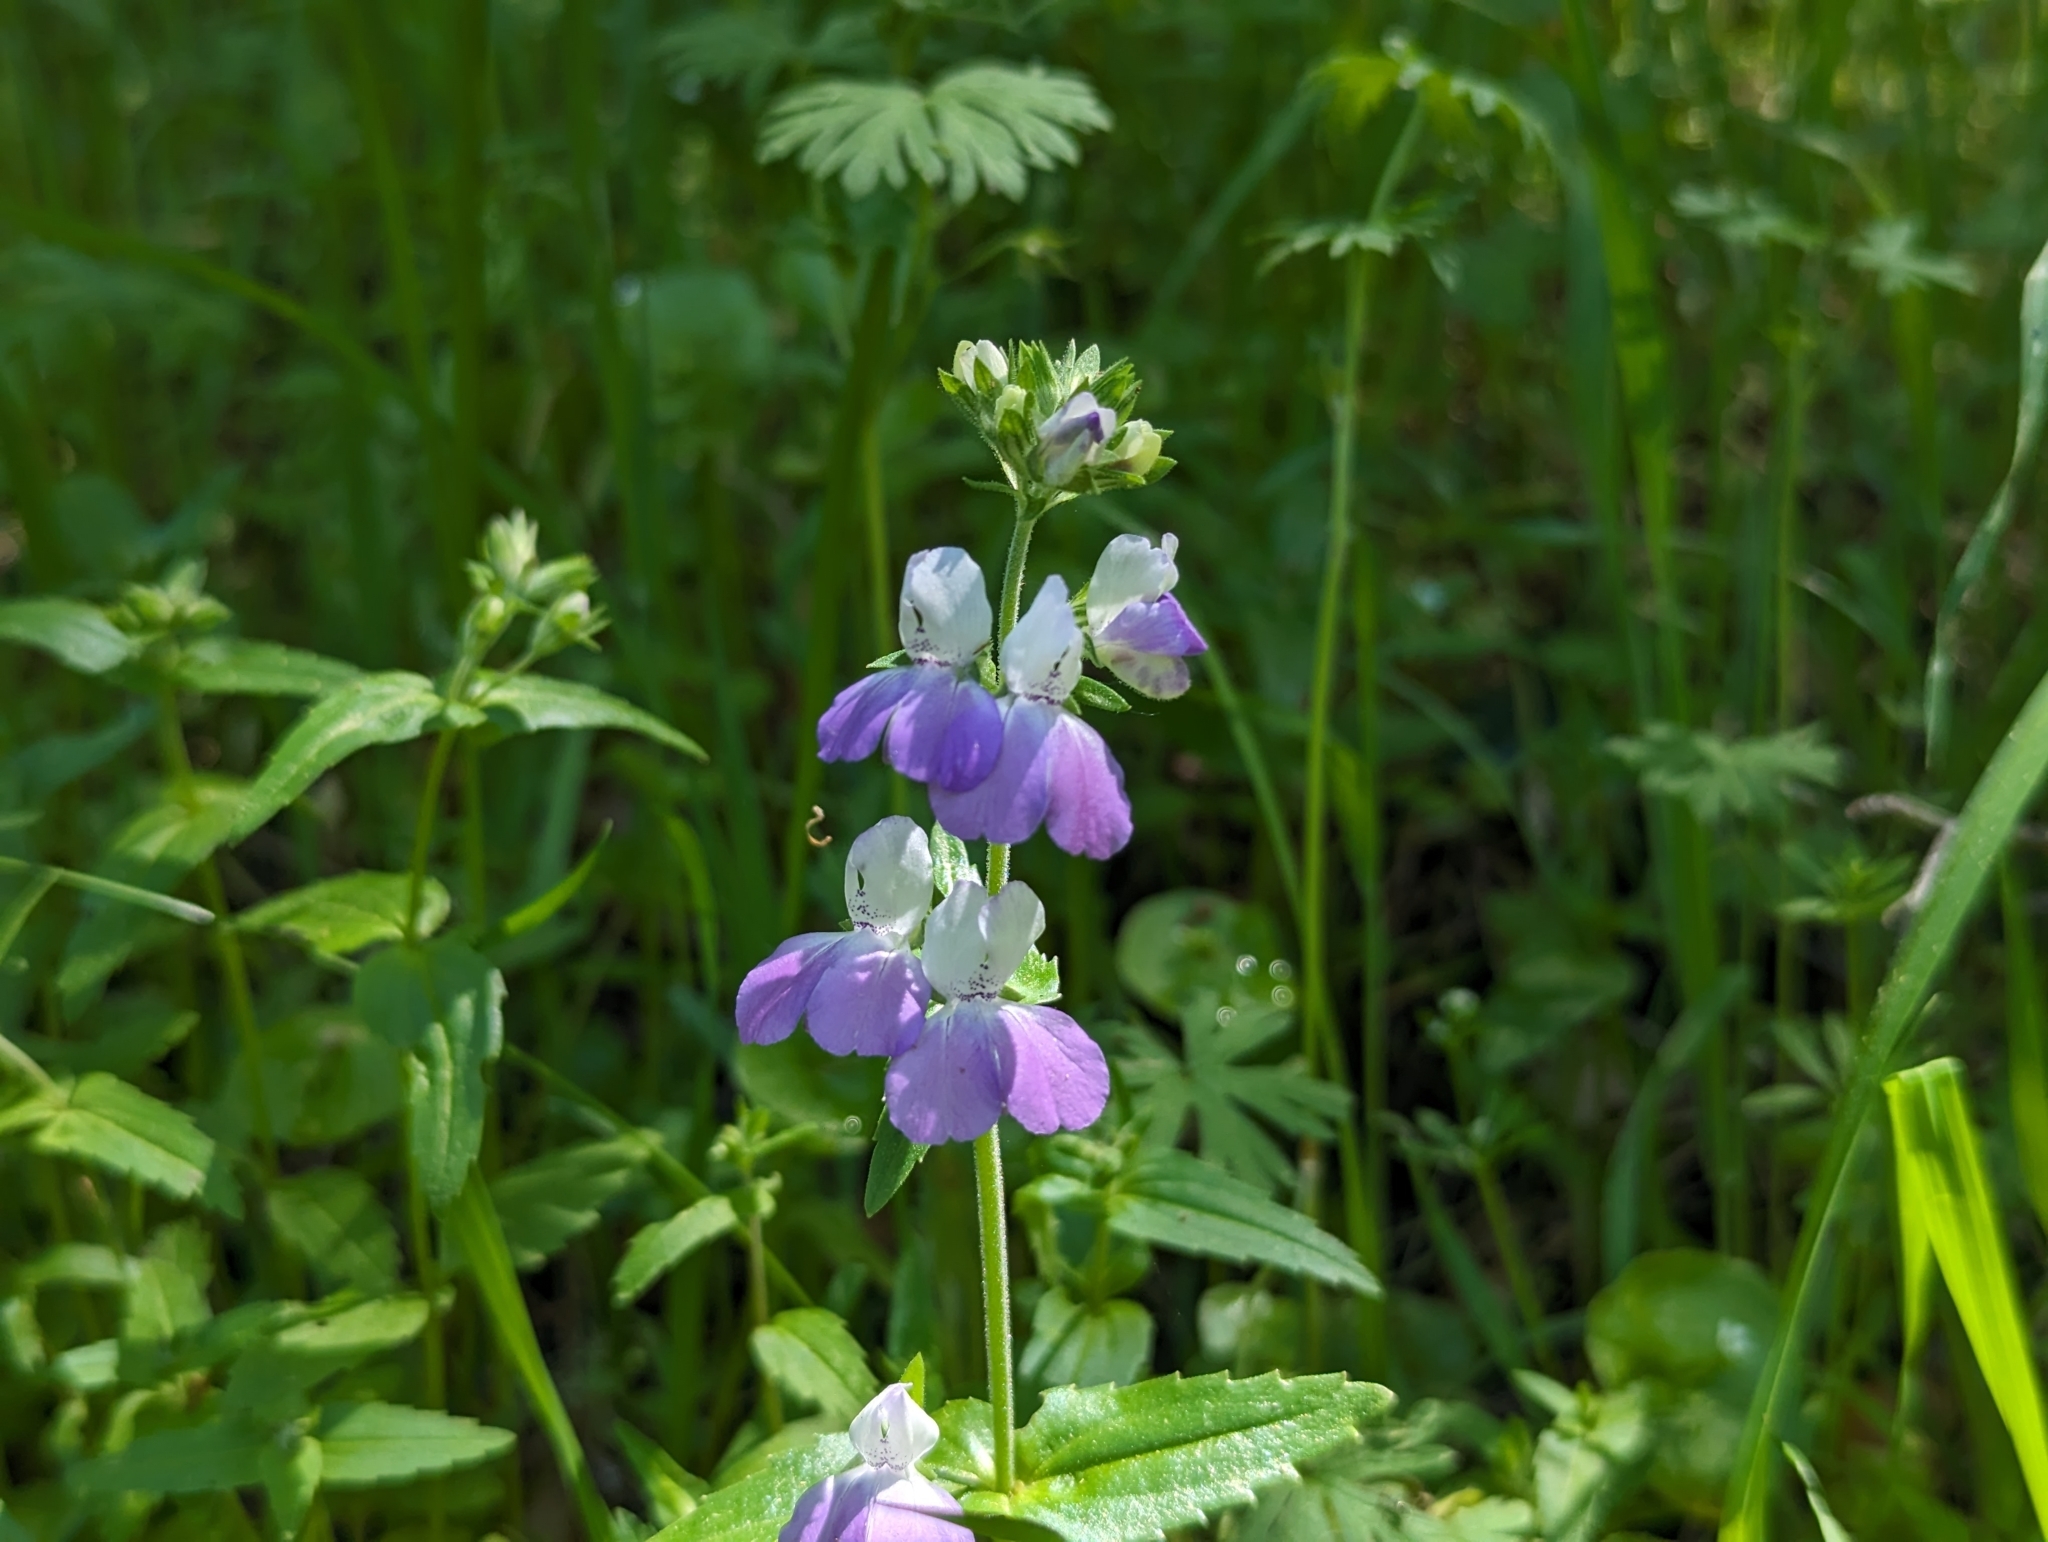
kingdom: Plantae
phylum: Tracheophyta
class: Magnoliopsida
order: Lamiales
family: Plantaginaceae
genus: Collinsia
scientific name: Collinsia multicolor
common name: San francisco collinsia
